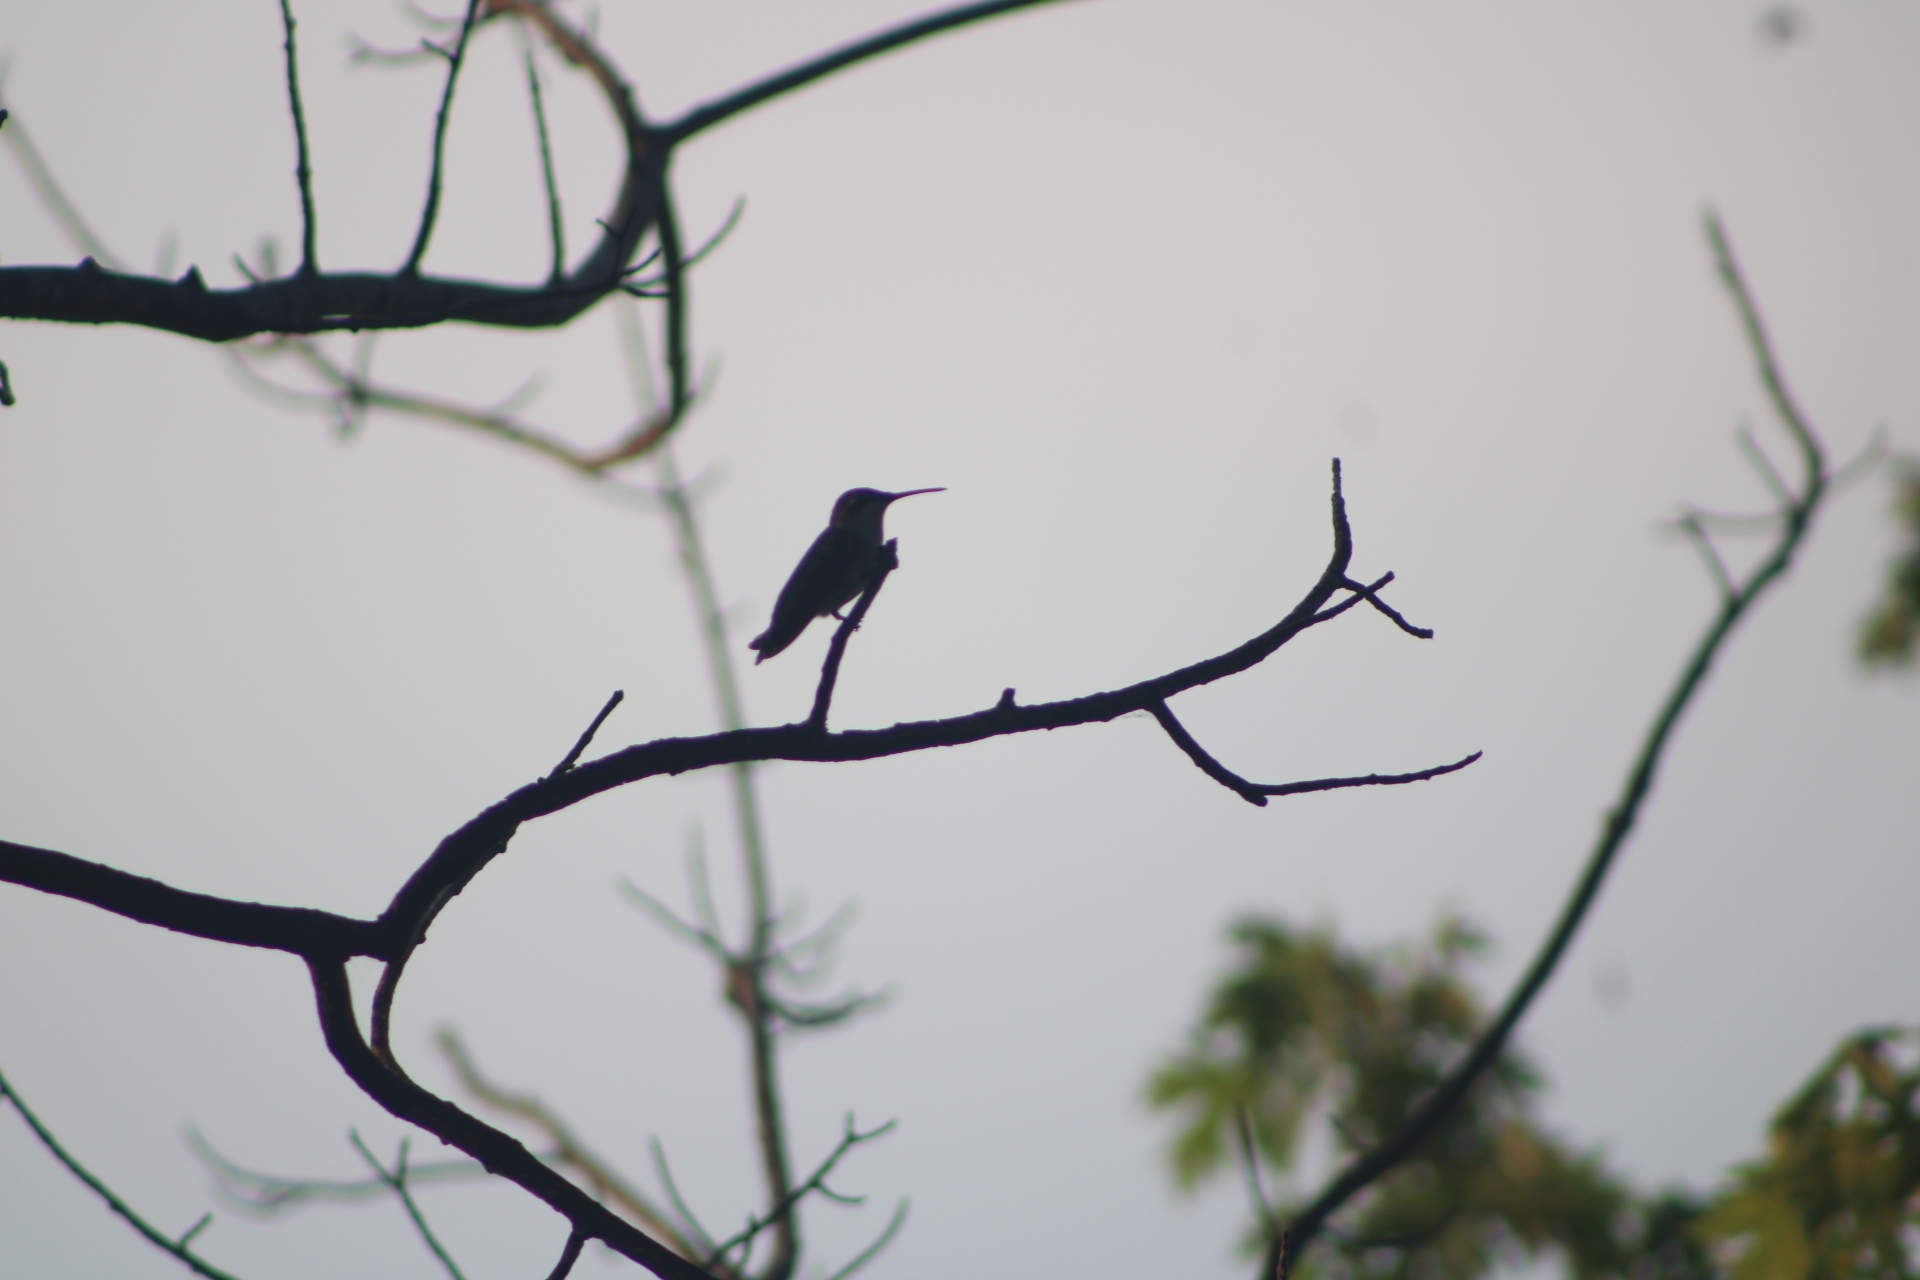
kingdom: Animalia
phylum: Chordata
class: Aves
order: Apodiformes
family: Trochilidae
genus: Archilochus
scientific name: Archilochus colubris
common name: Ruby-throated hummingbird
